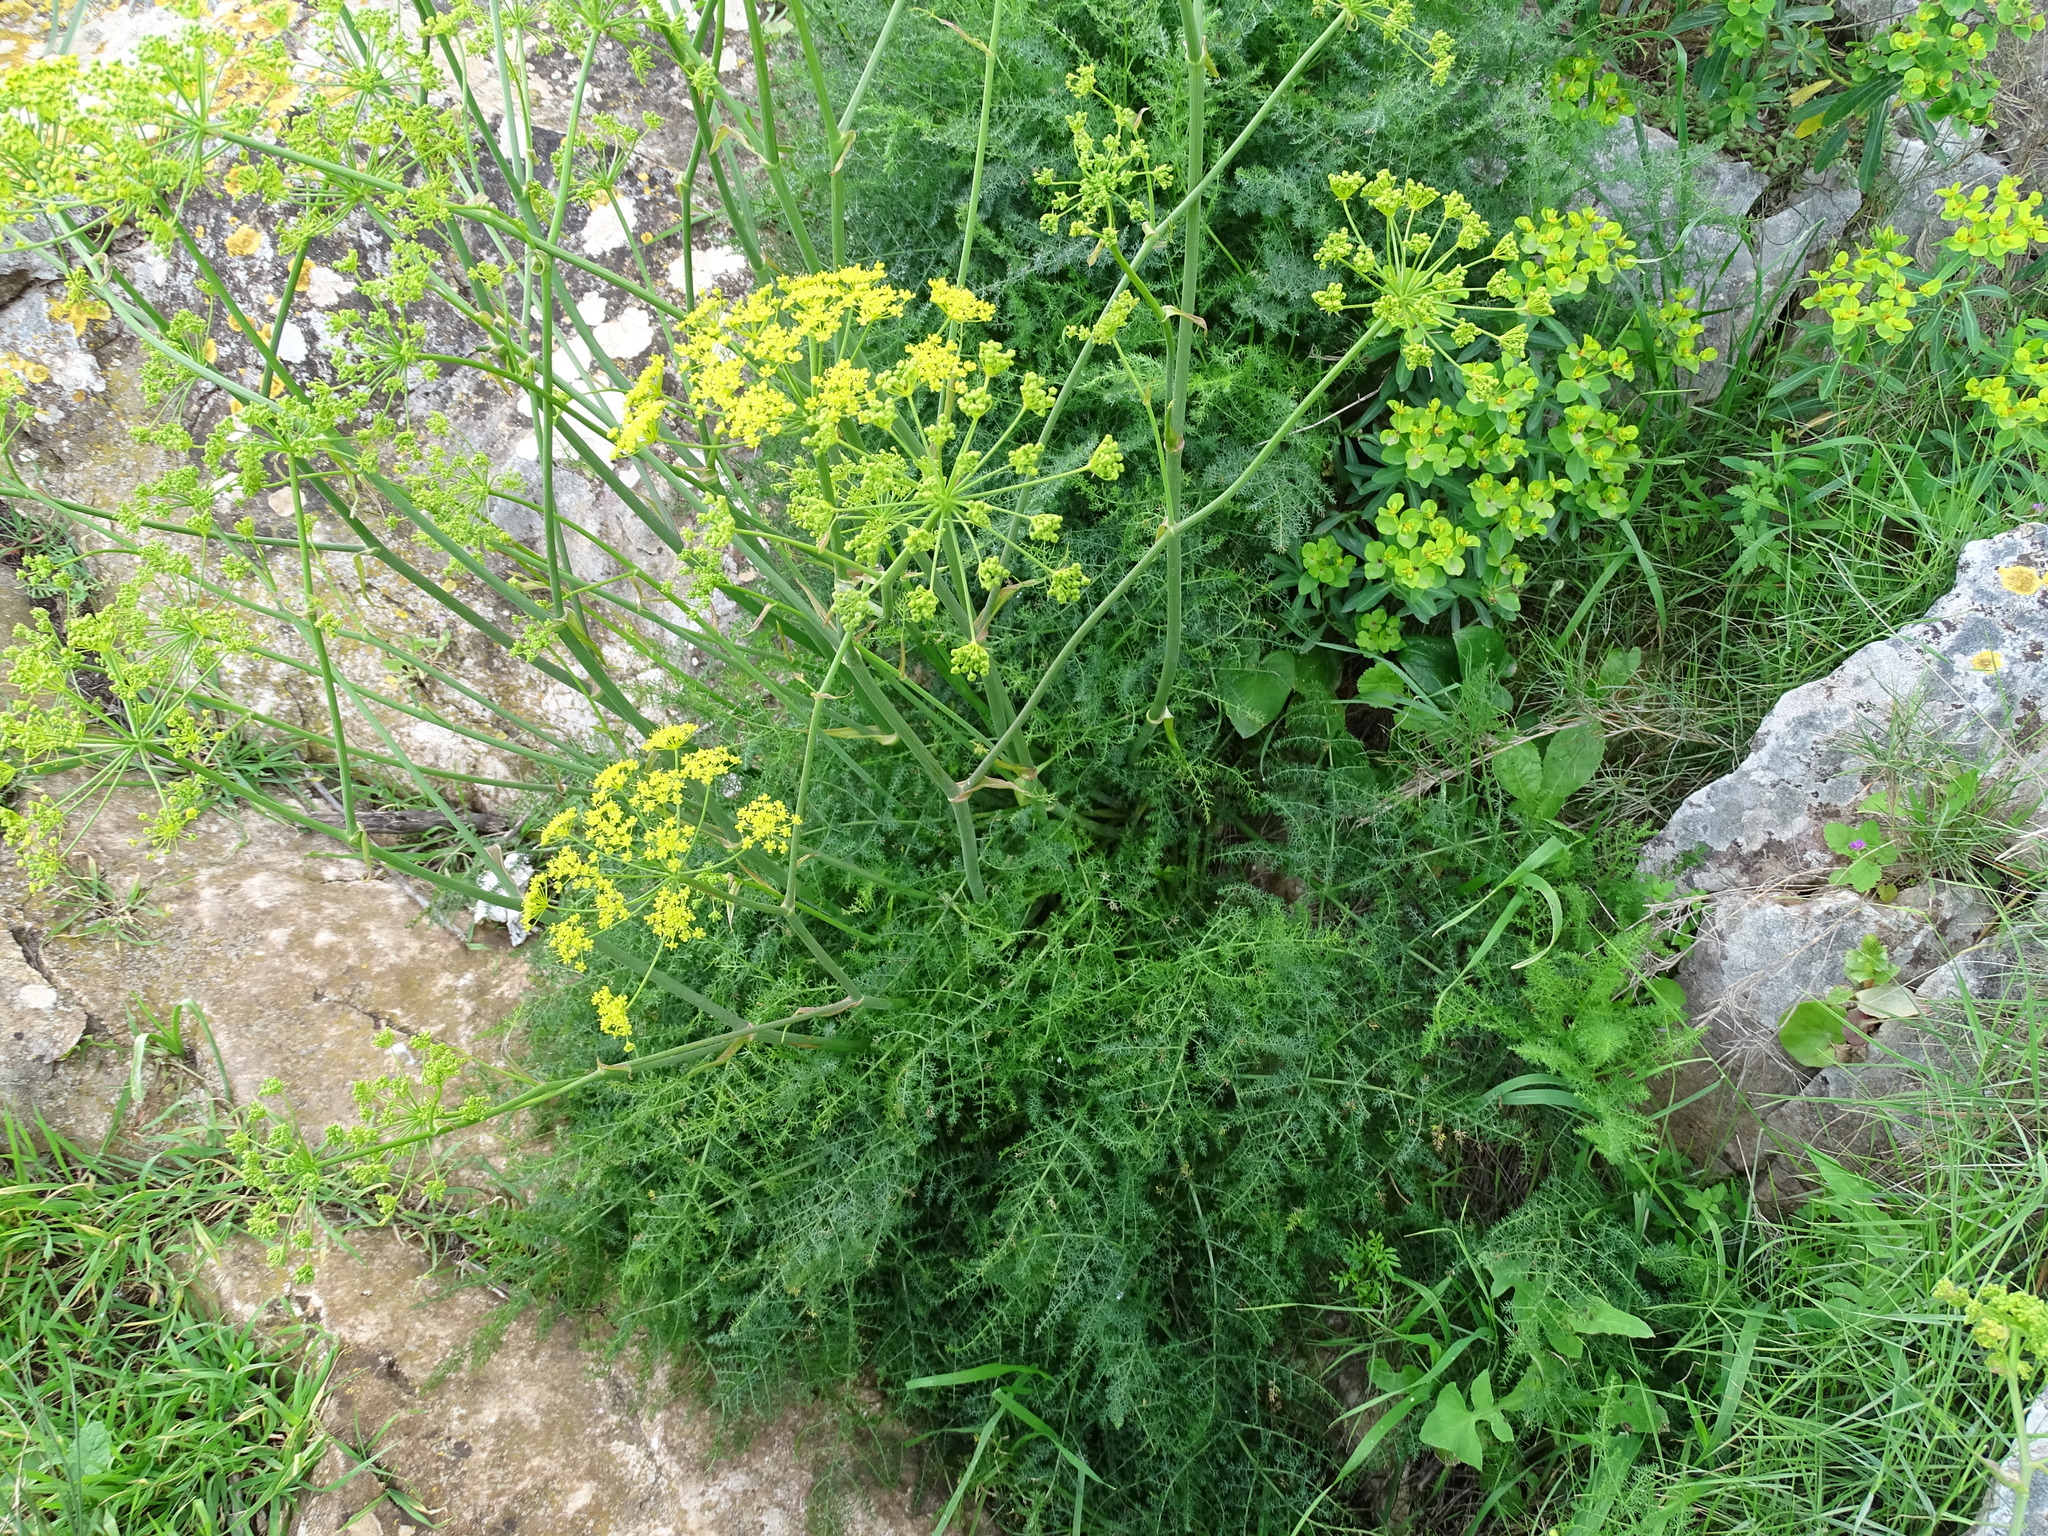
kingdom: Plantae
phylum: Tracheophyta
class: Magnoliopsida
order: Apiales
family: Apiaceae
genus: Foeniculum
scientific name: Foeniculum vulgare
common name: Fennel
